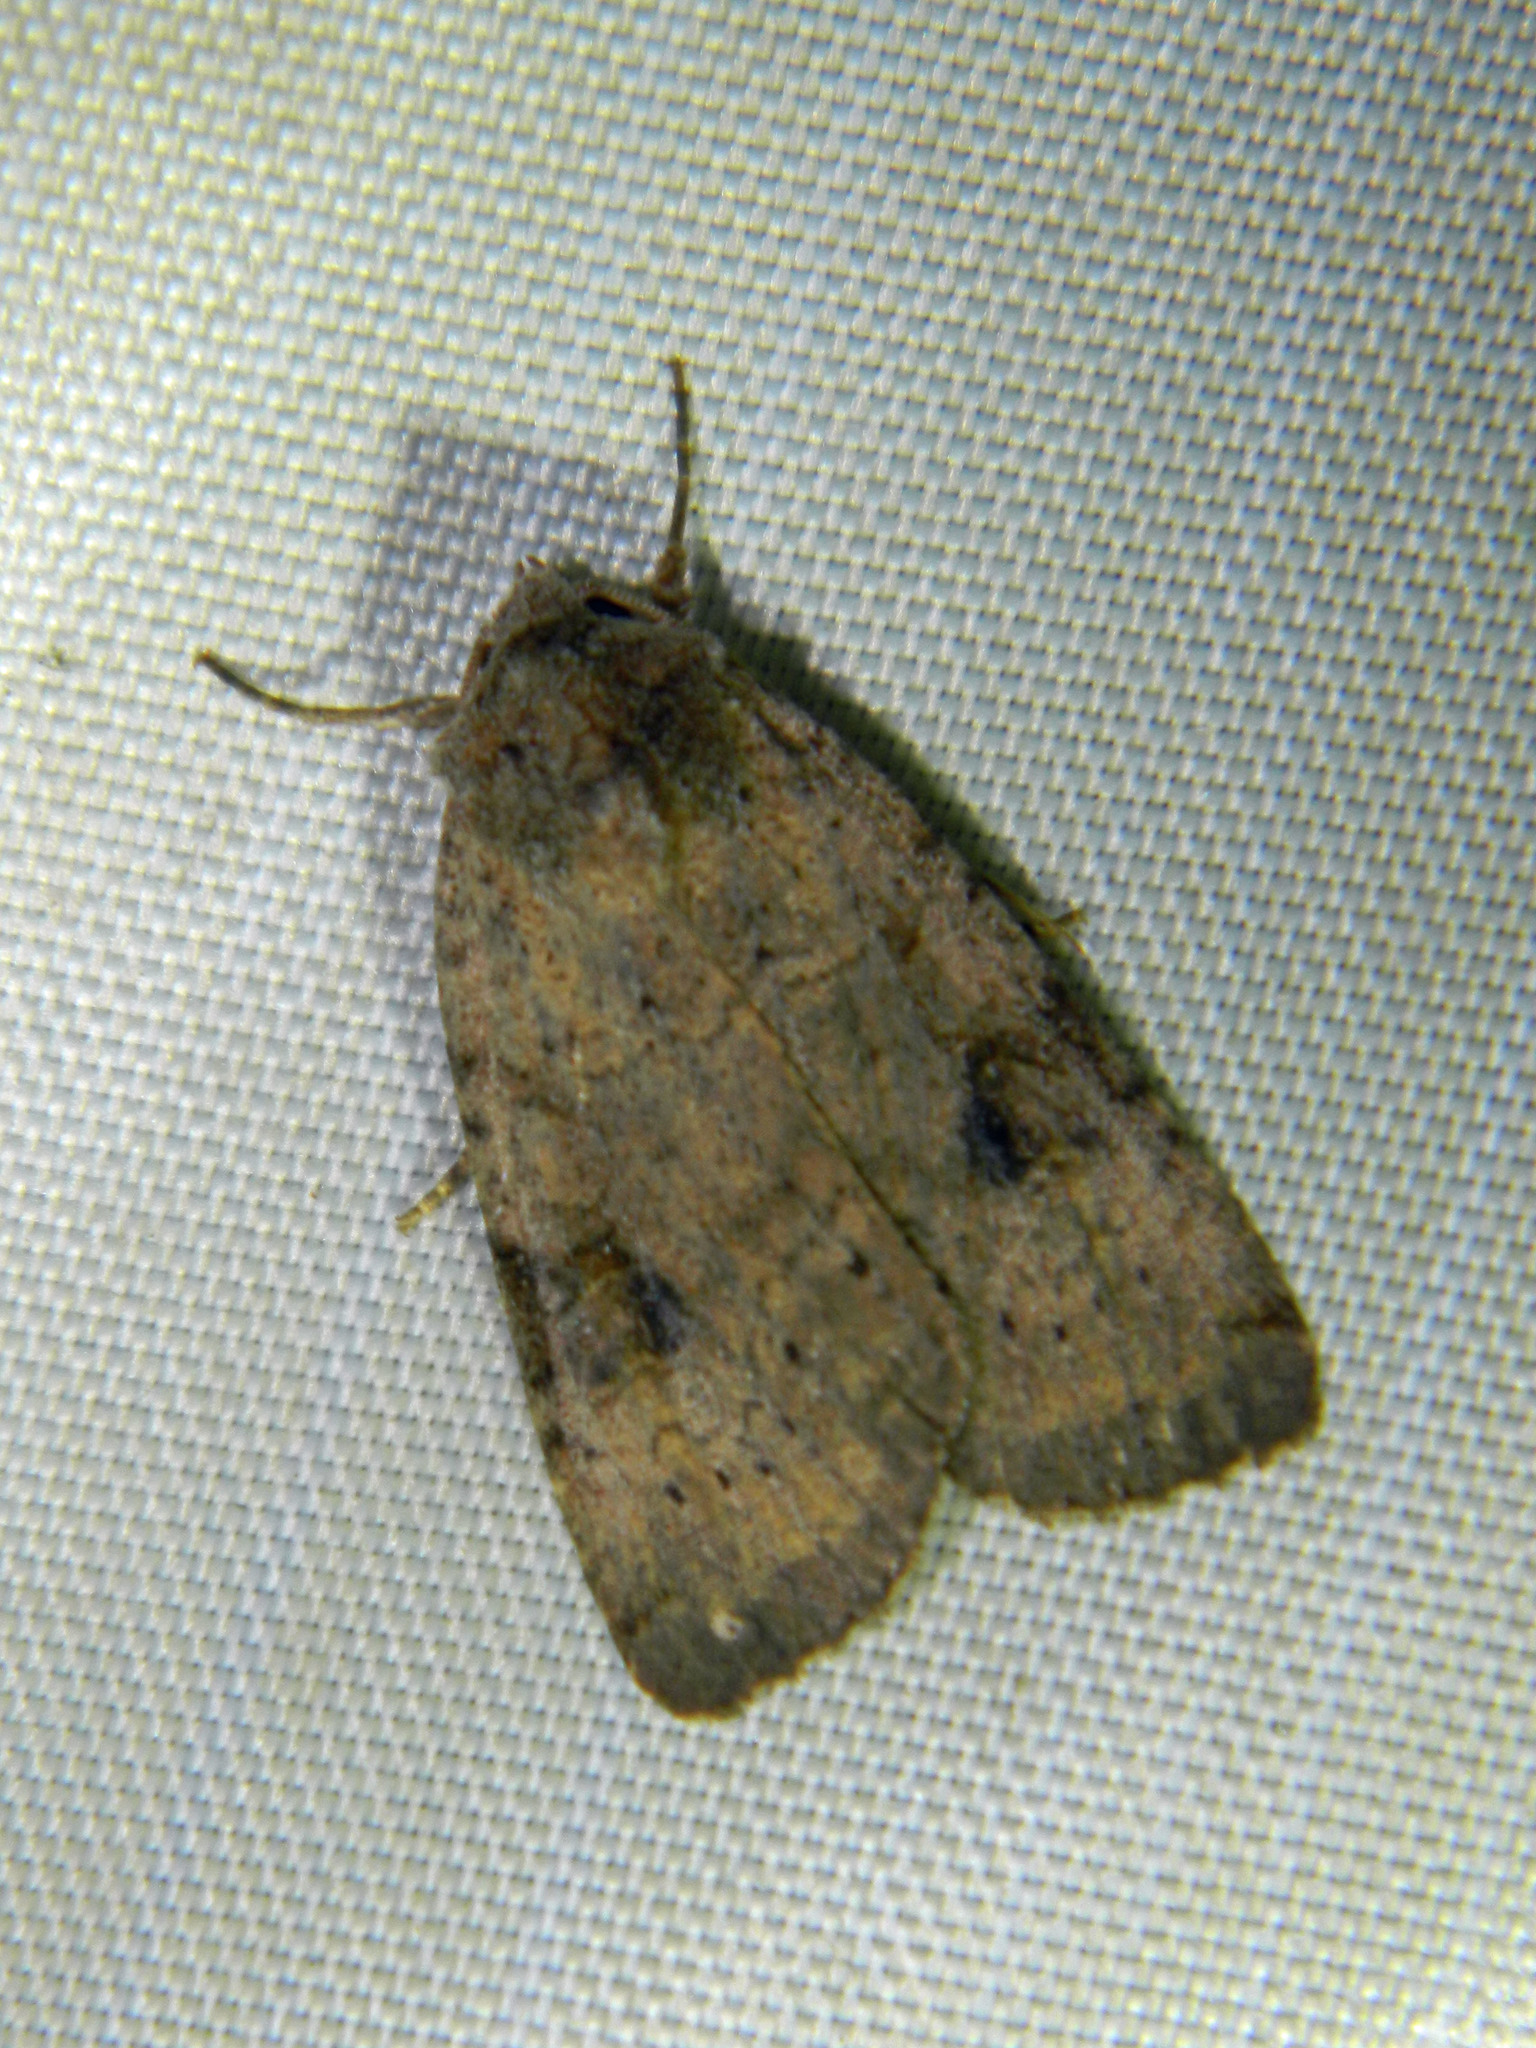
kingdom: Animalia
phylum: Arthropoda
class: Insecta
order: Lepidoptera
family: Noctuidae
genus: Xestia
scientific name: Xestia smithii
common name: Smith's dart
